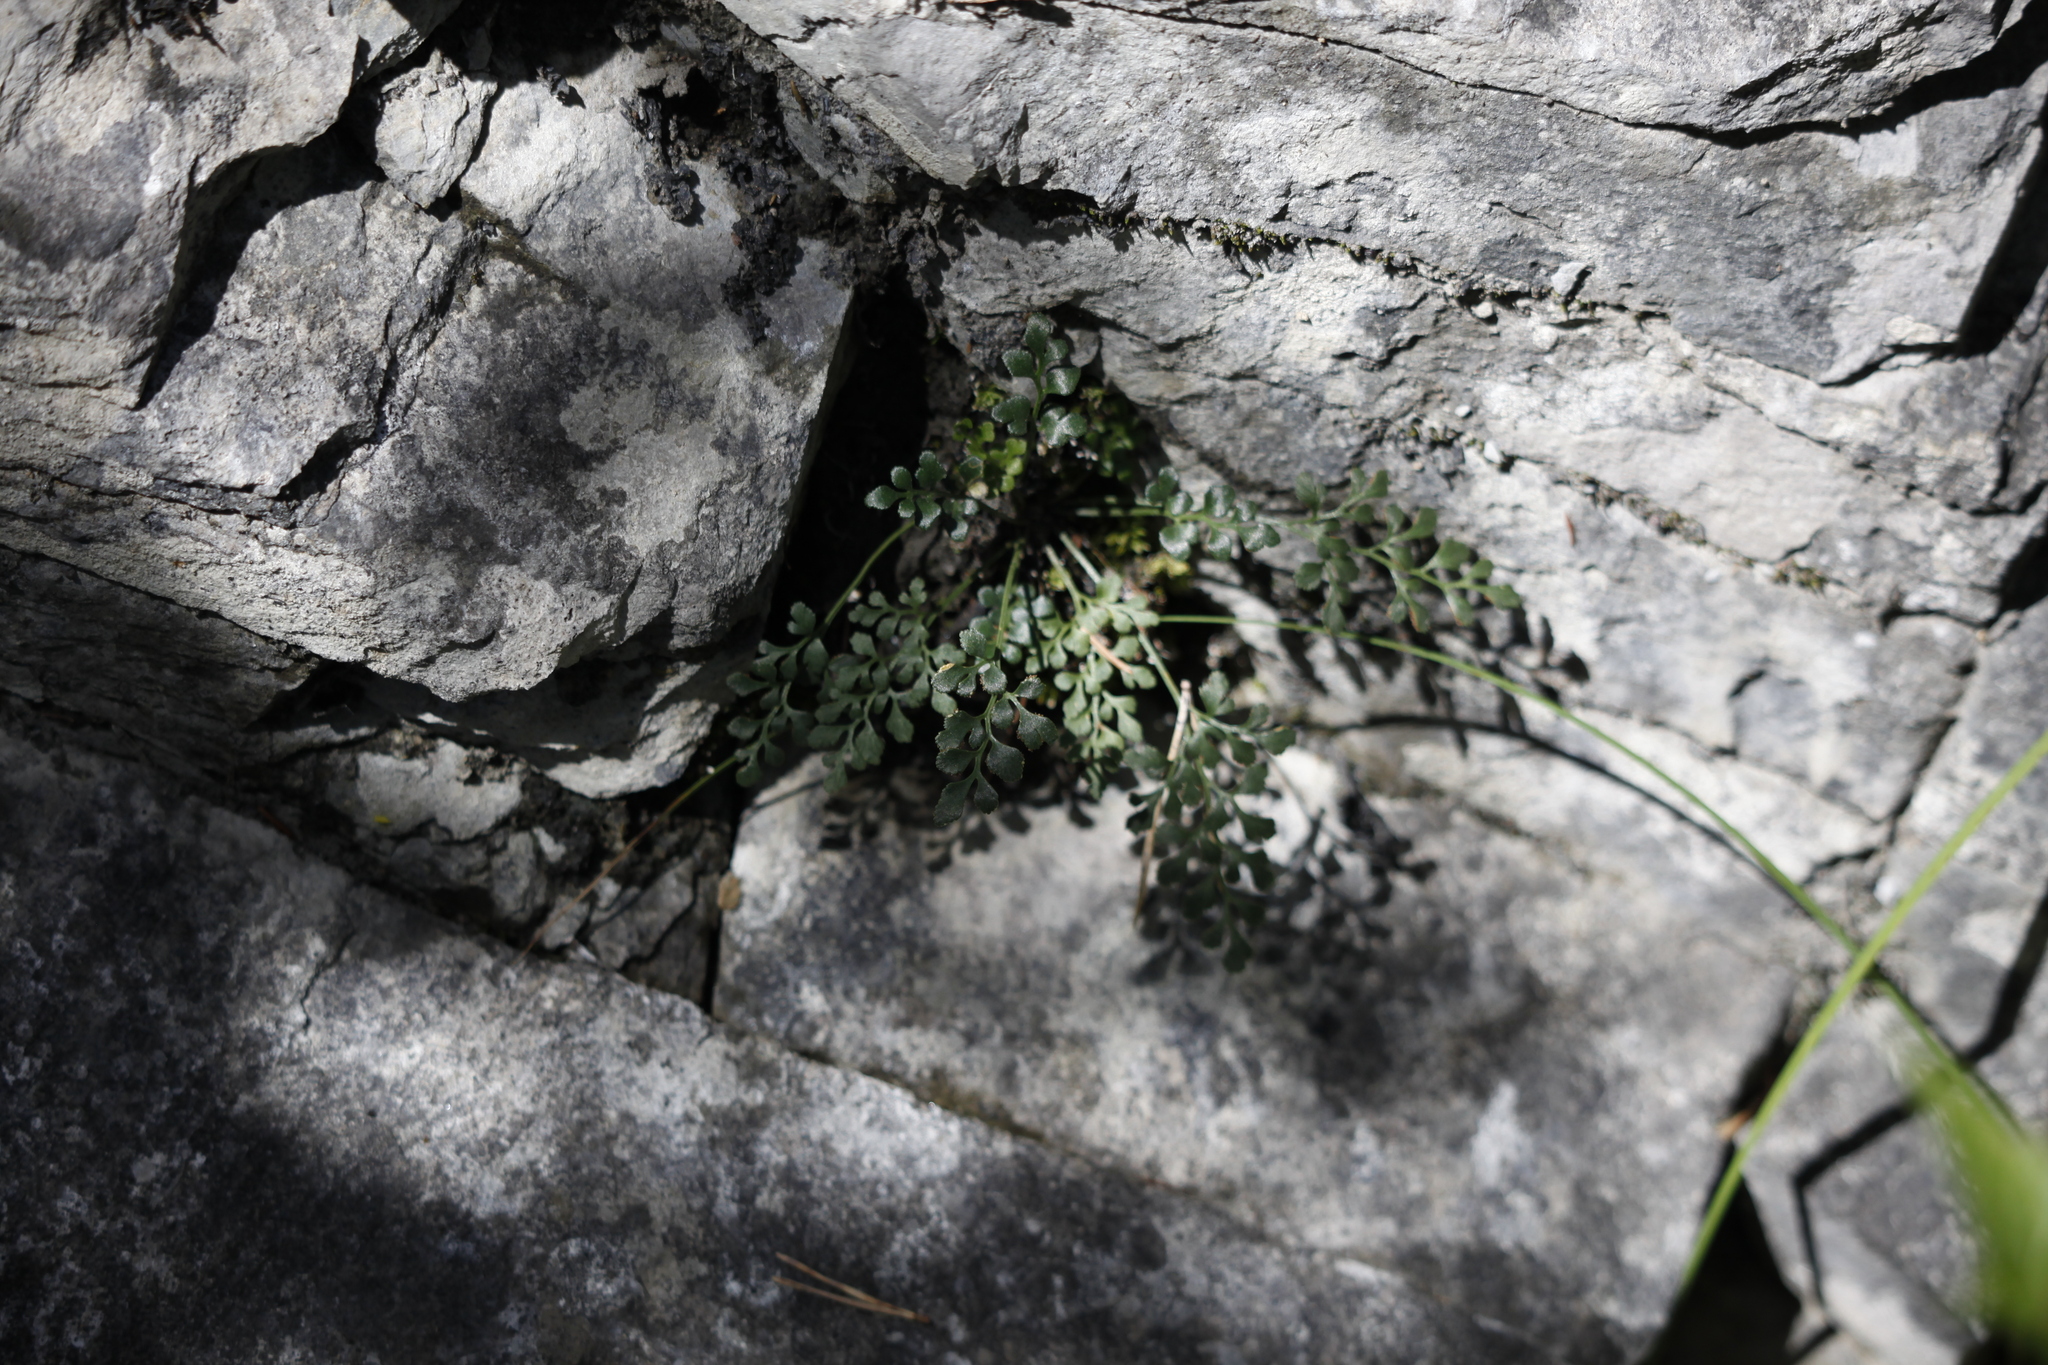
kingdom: Plantae
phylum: Tracheophyta
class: Polypodiopsida
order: Polypodiales
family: Aspleniaceae
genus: Asplenium
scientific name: Asplenium ruta-muraria
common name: Wall-rue
